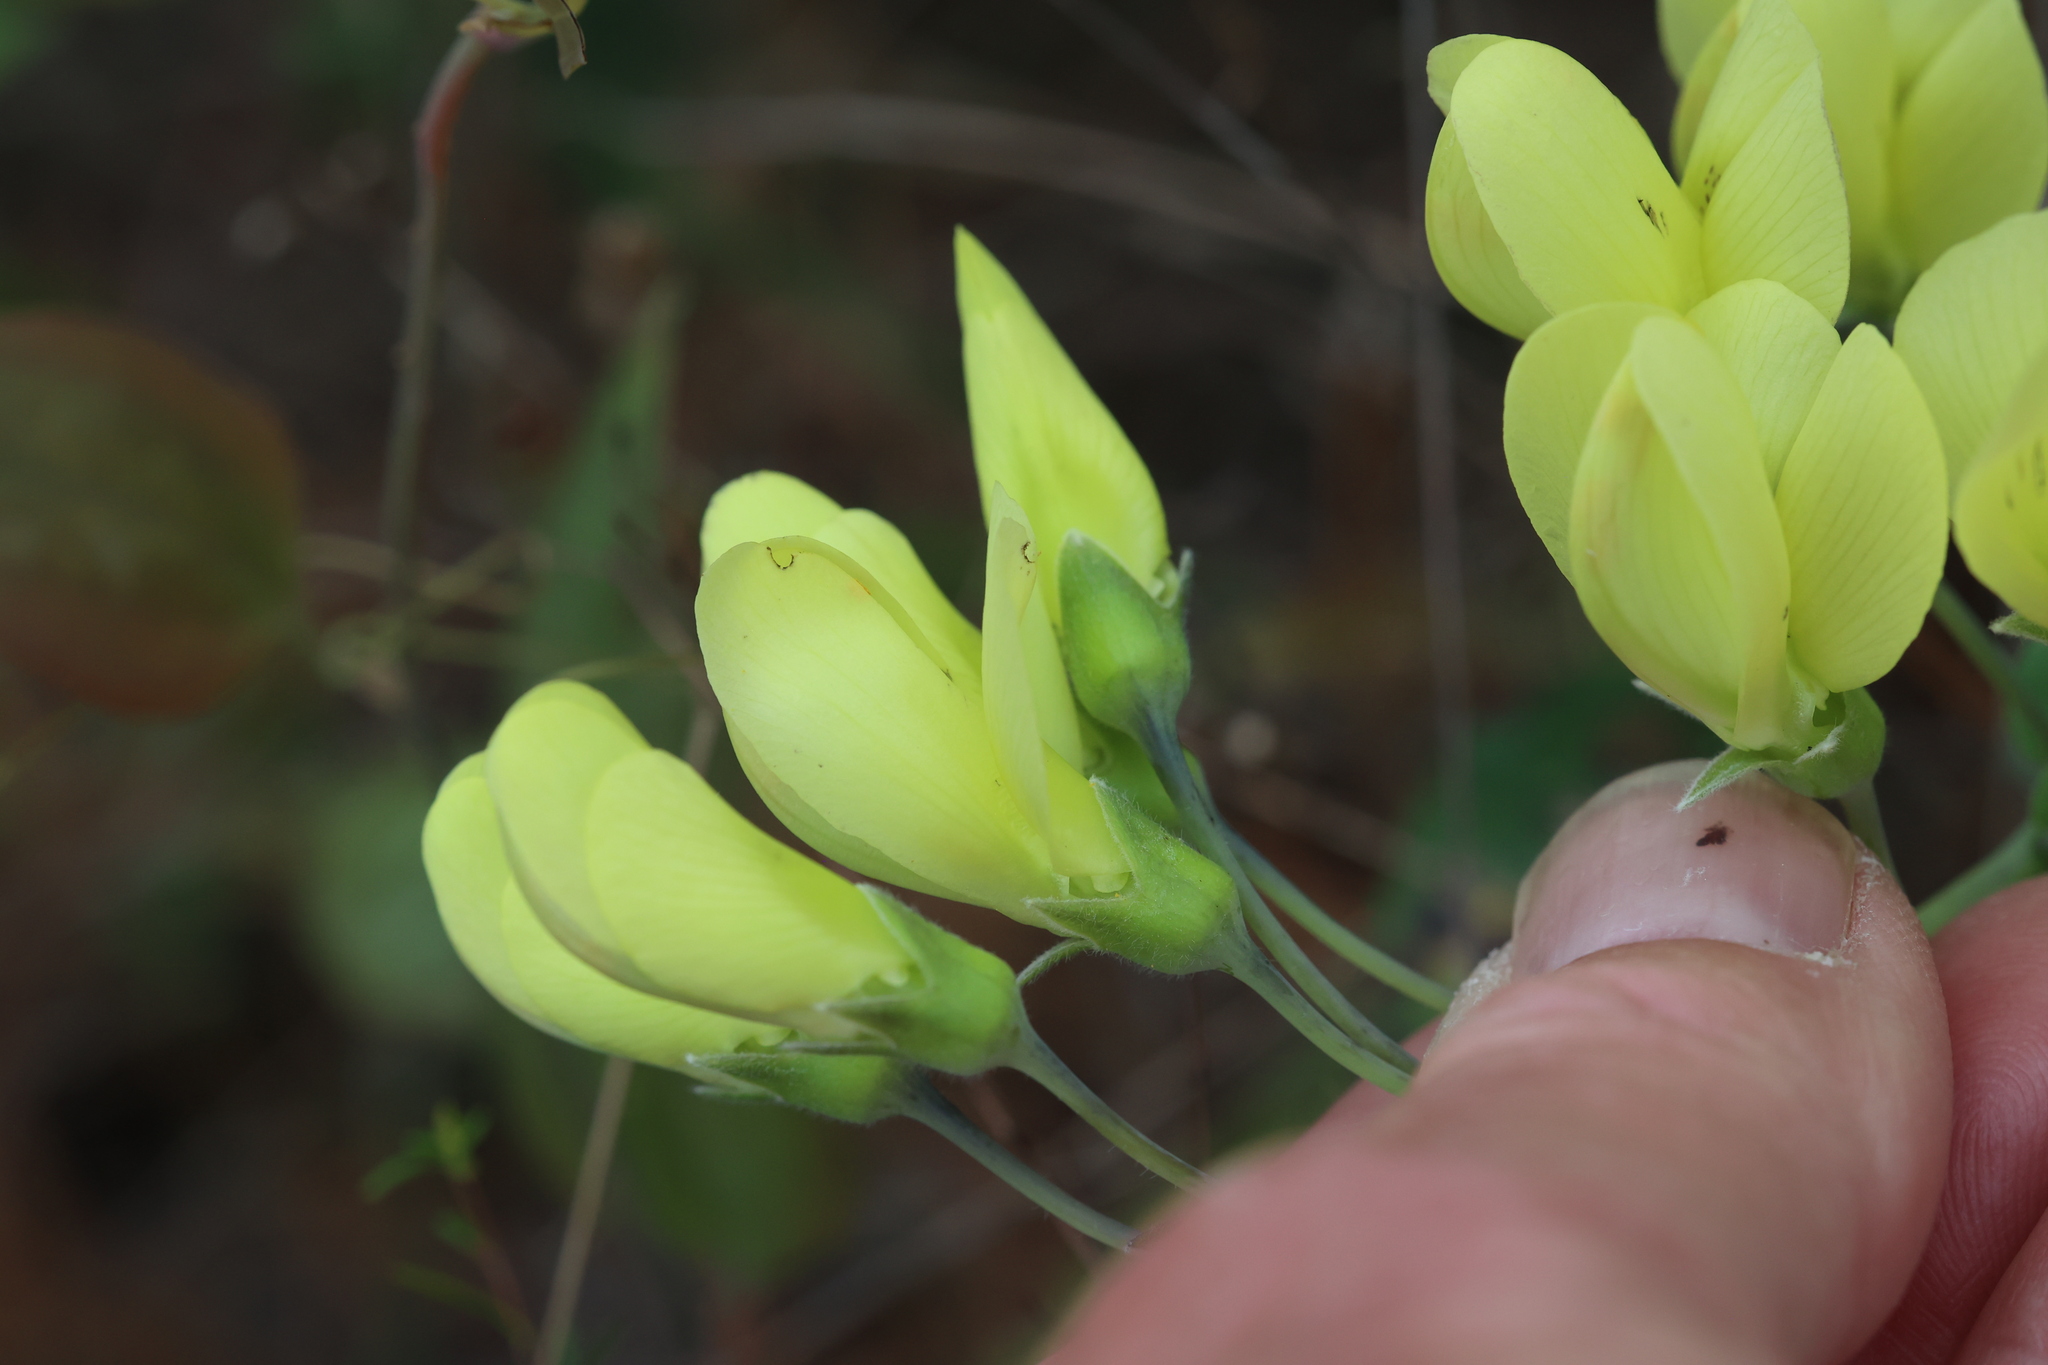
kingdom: Plantae
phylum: Tracheophyta
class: Magnoliopsida
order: Fabales
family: Fabaceae
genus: Baptisia
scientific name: Baptisia bracteata
